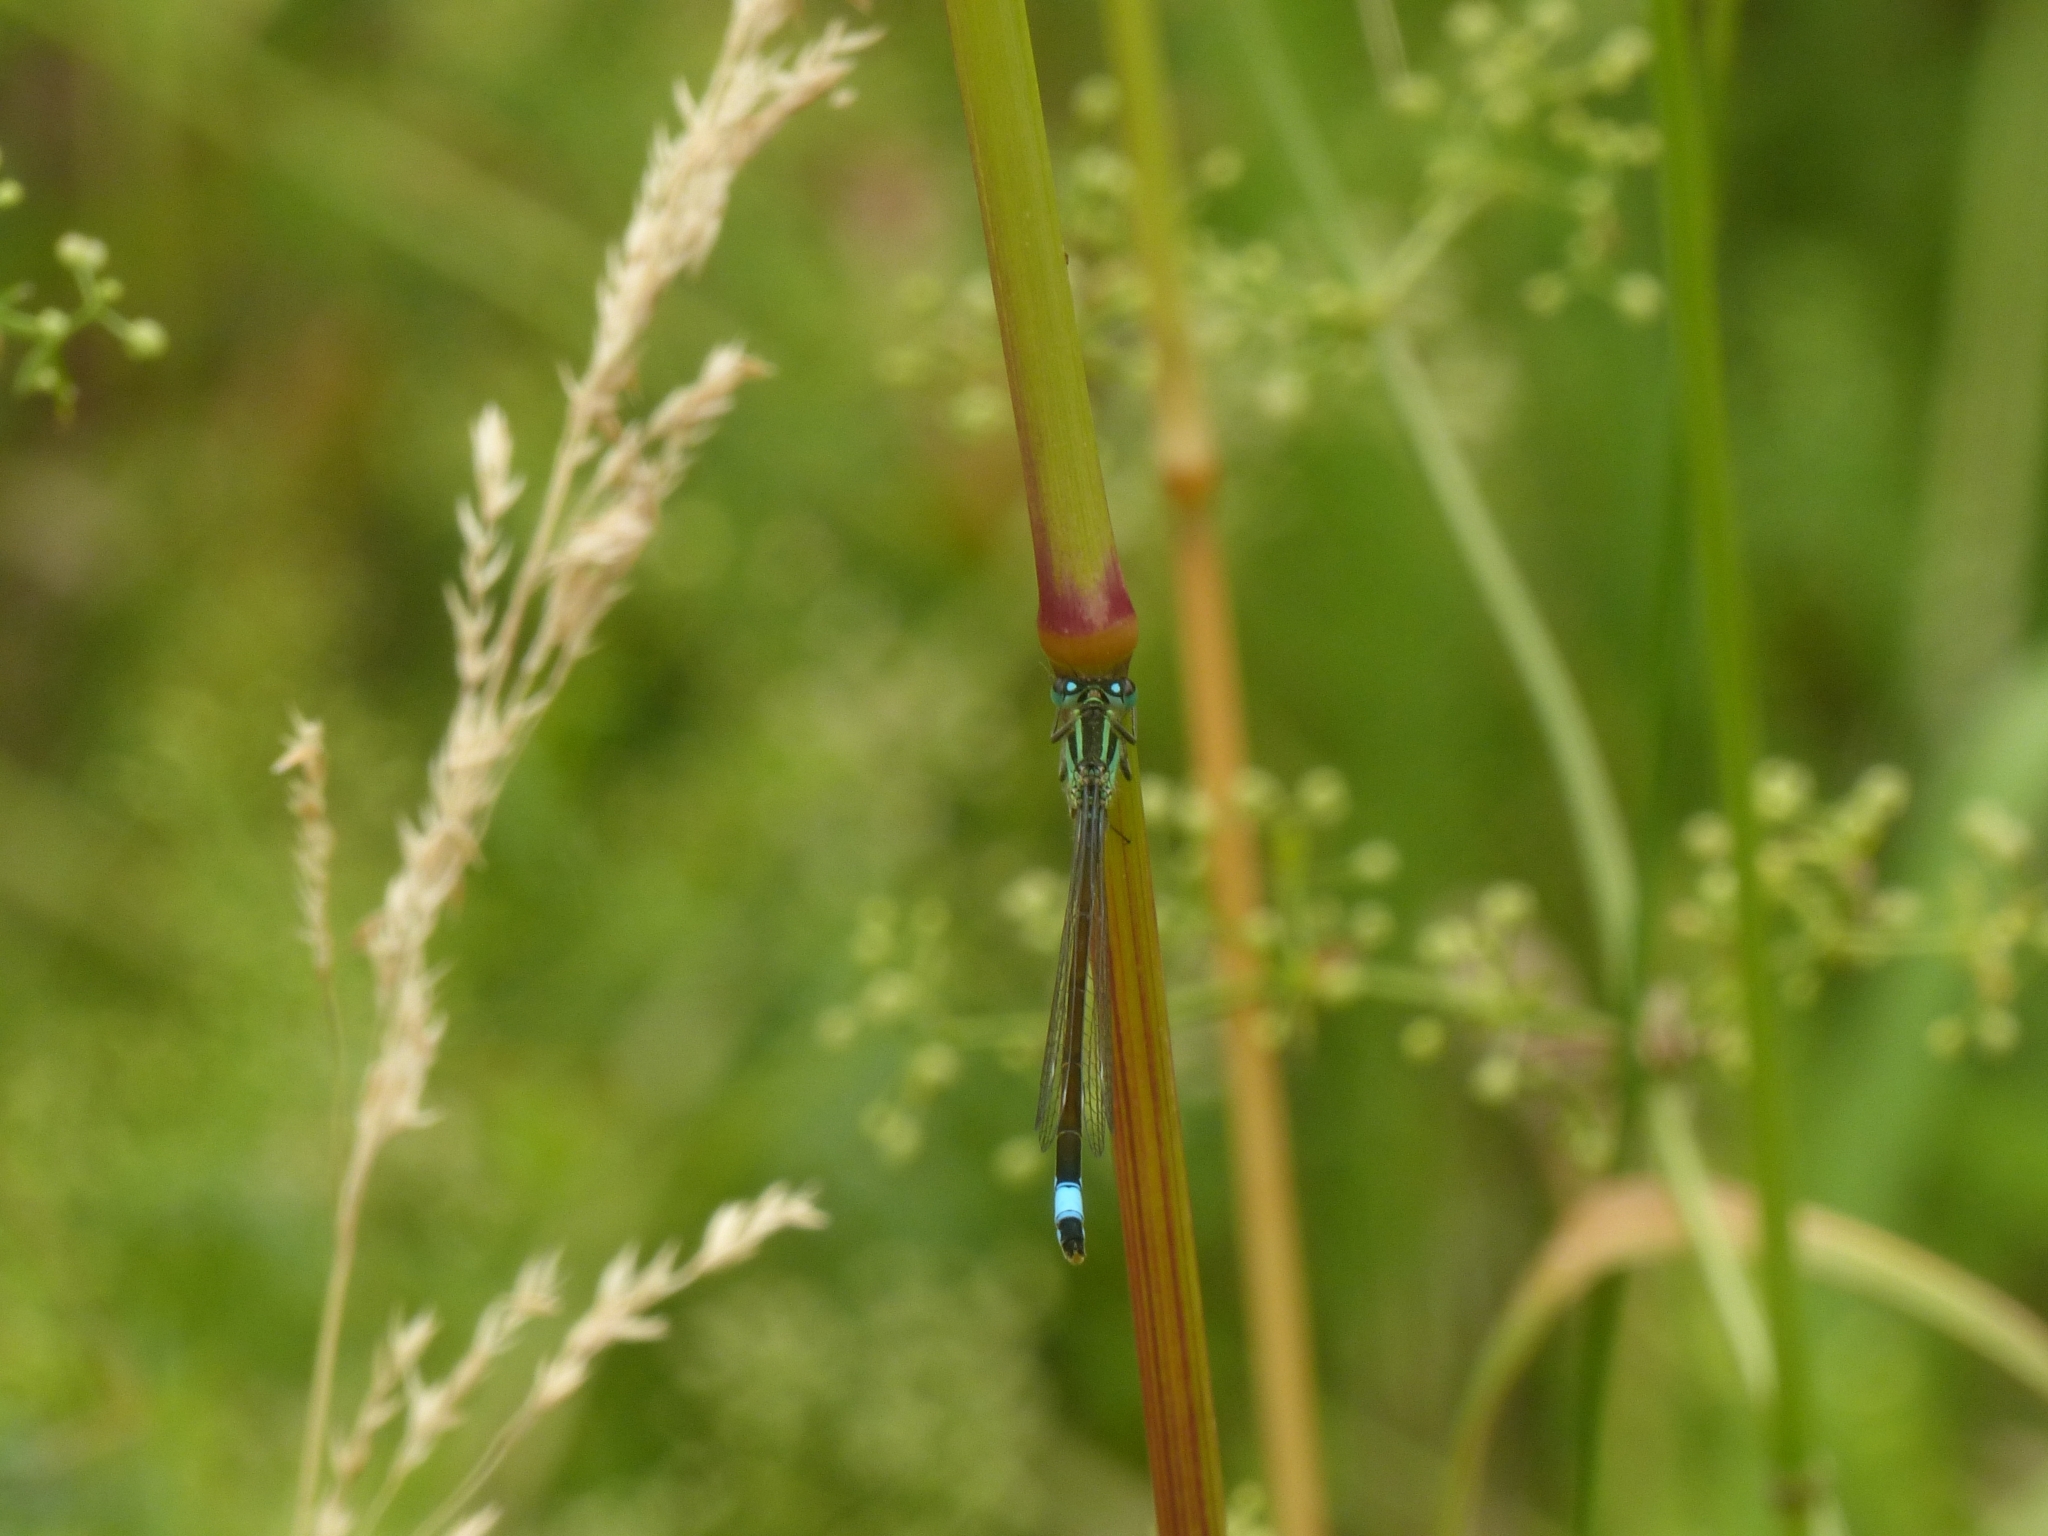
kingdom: Animalia
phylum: Arthropoda
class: Insecta
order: Odonata
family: Coenagrionidae
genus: Ischnura
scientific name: Ischnura elegans
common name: Blue-tailed damselfly
